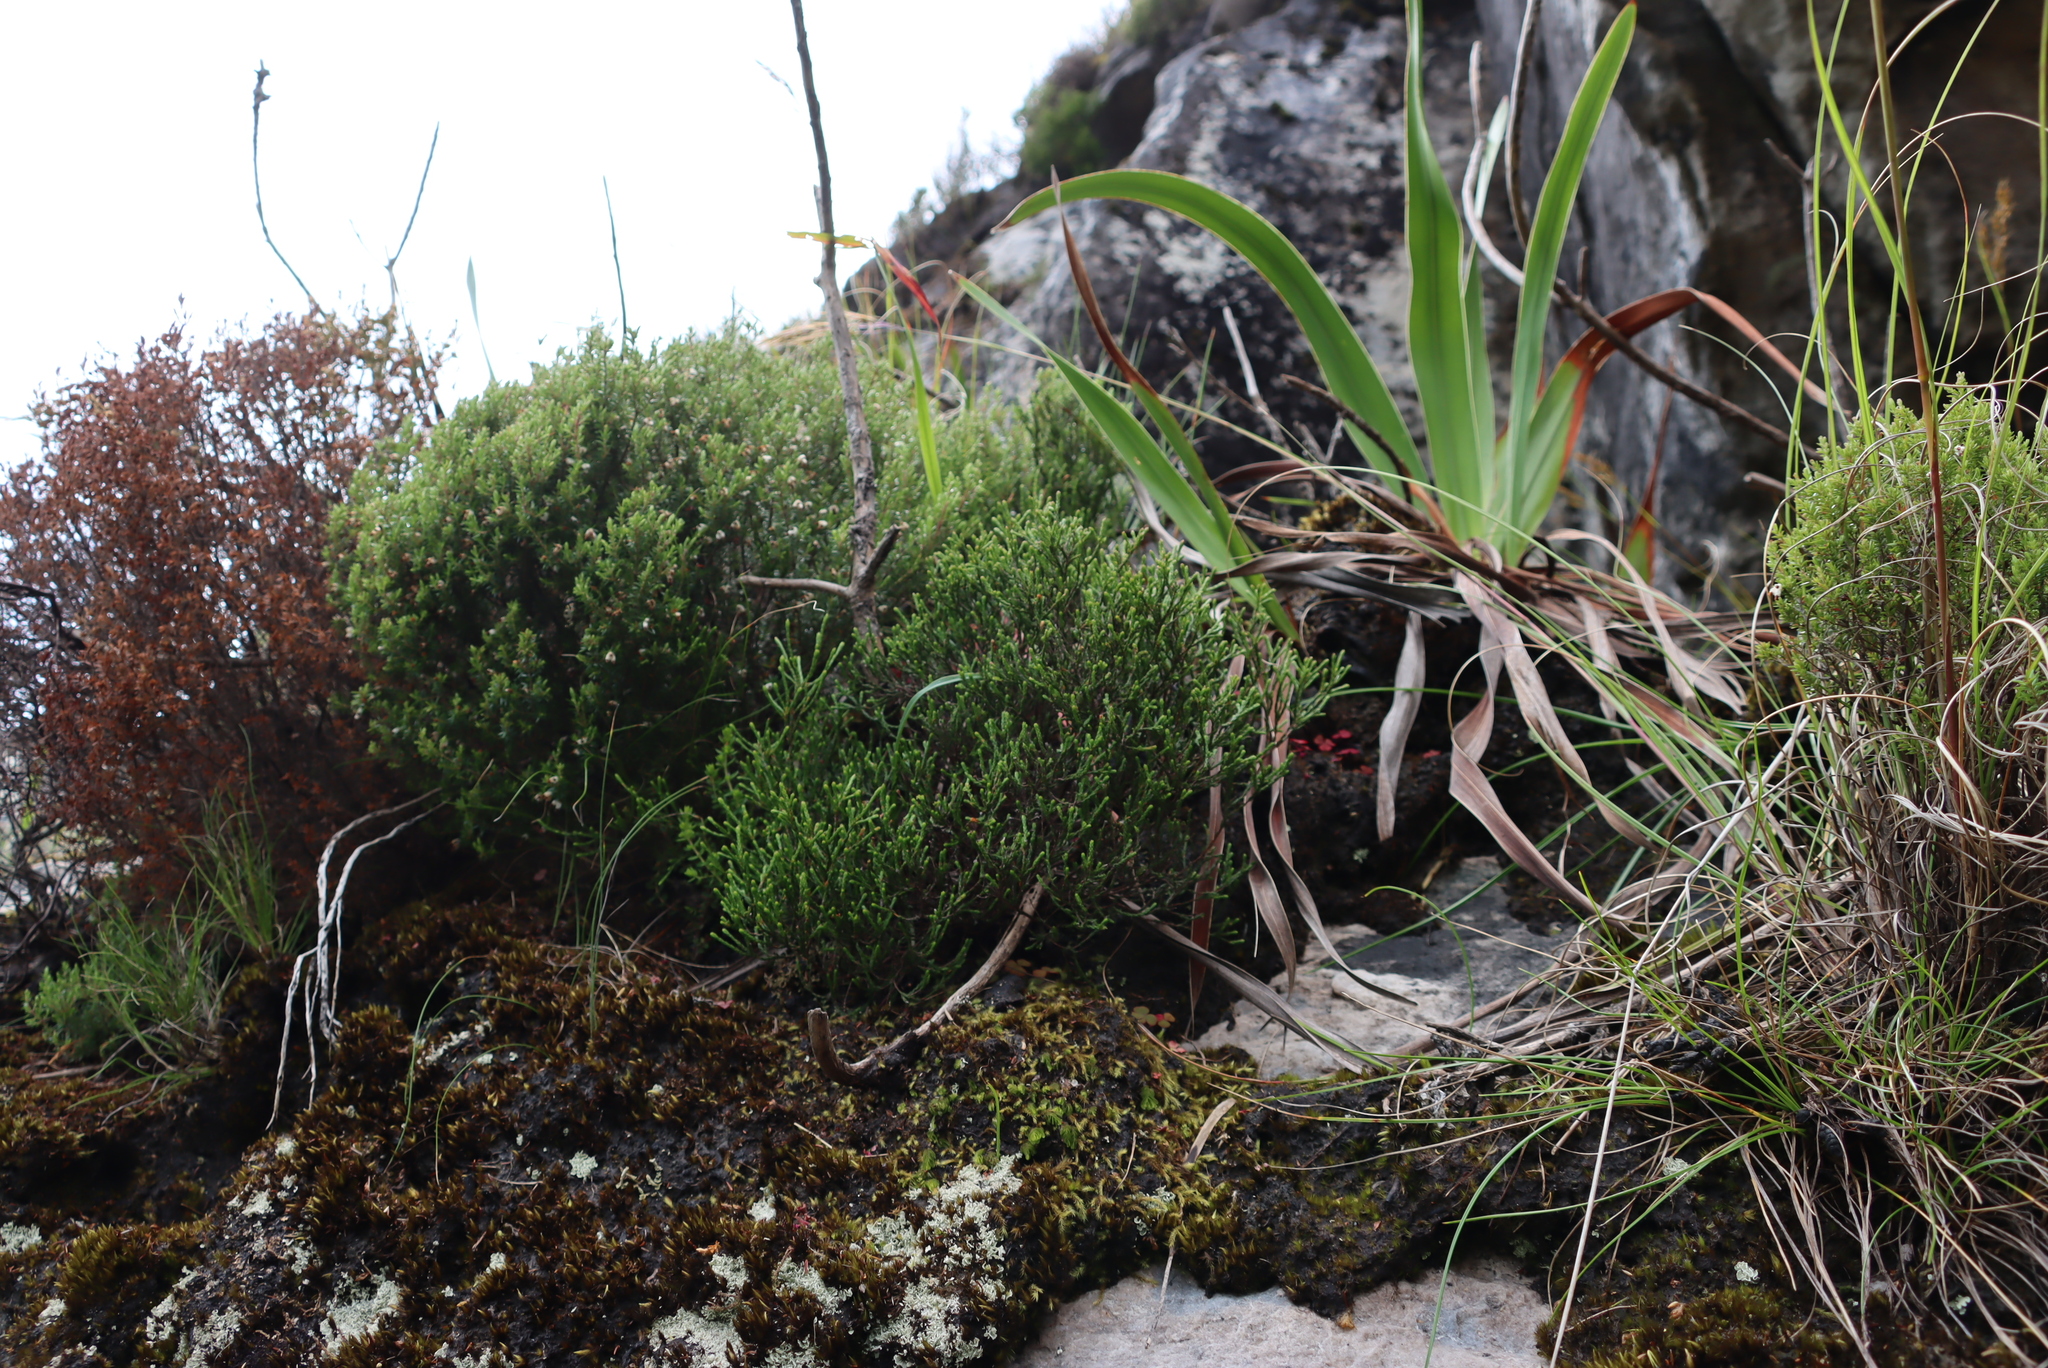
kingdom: Plantae
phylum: Tracheophyta
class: Magnoliopsida
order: Ericales
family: Ericaceae
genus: Erica
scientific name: Erica genistifolia
